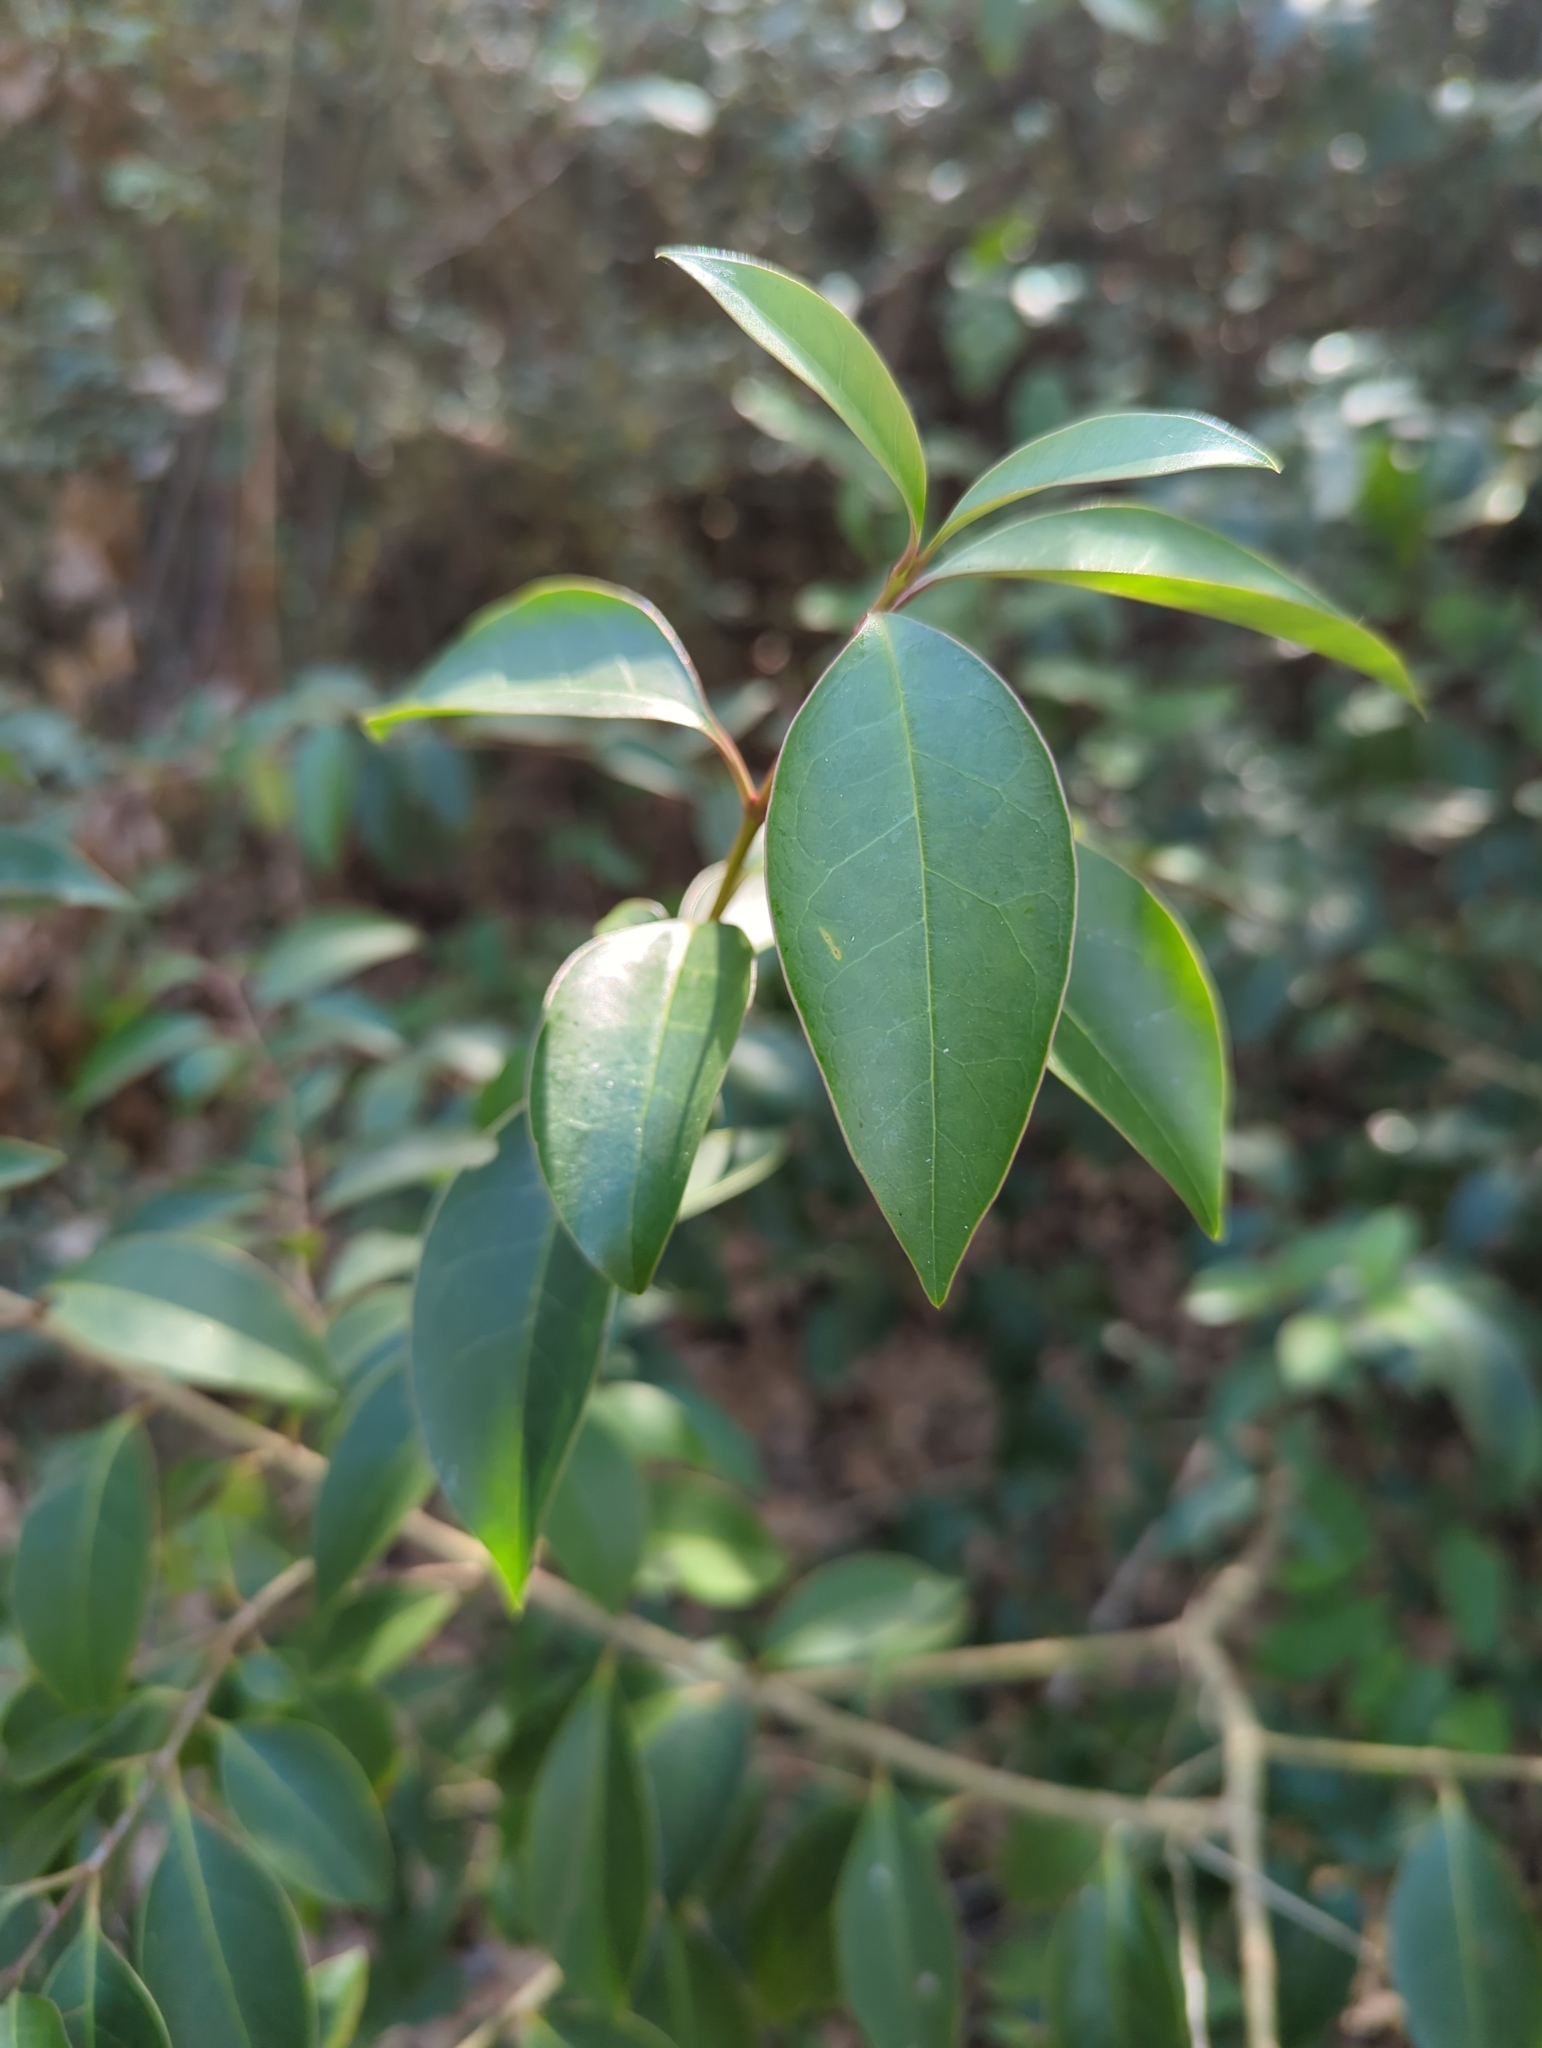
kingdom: Plantae
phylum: Tracheophyta
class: Magnoliopsida
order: Lamiales
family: Oleaceae
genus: Ligustrum
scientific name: Ligustrum lucidum
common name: Glossy privet
